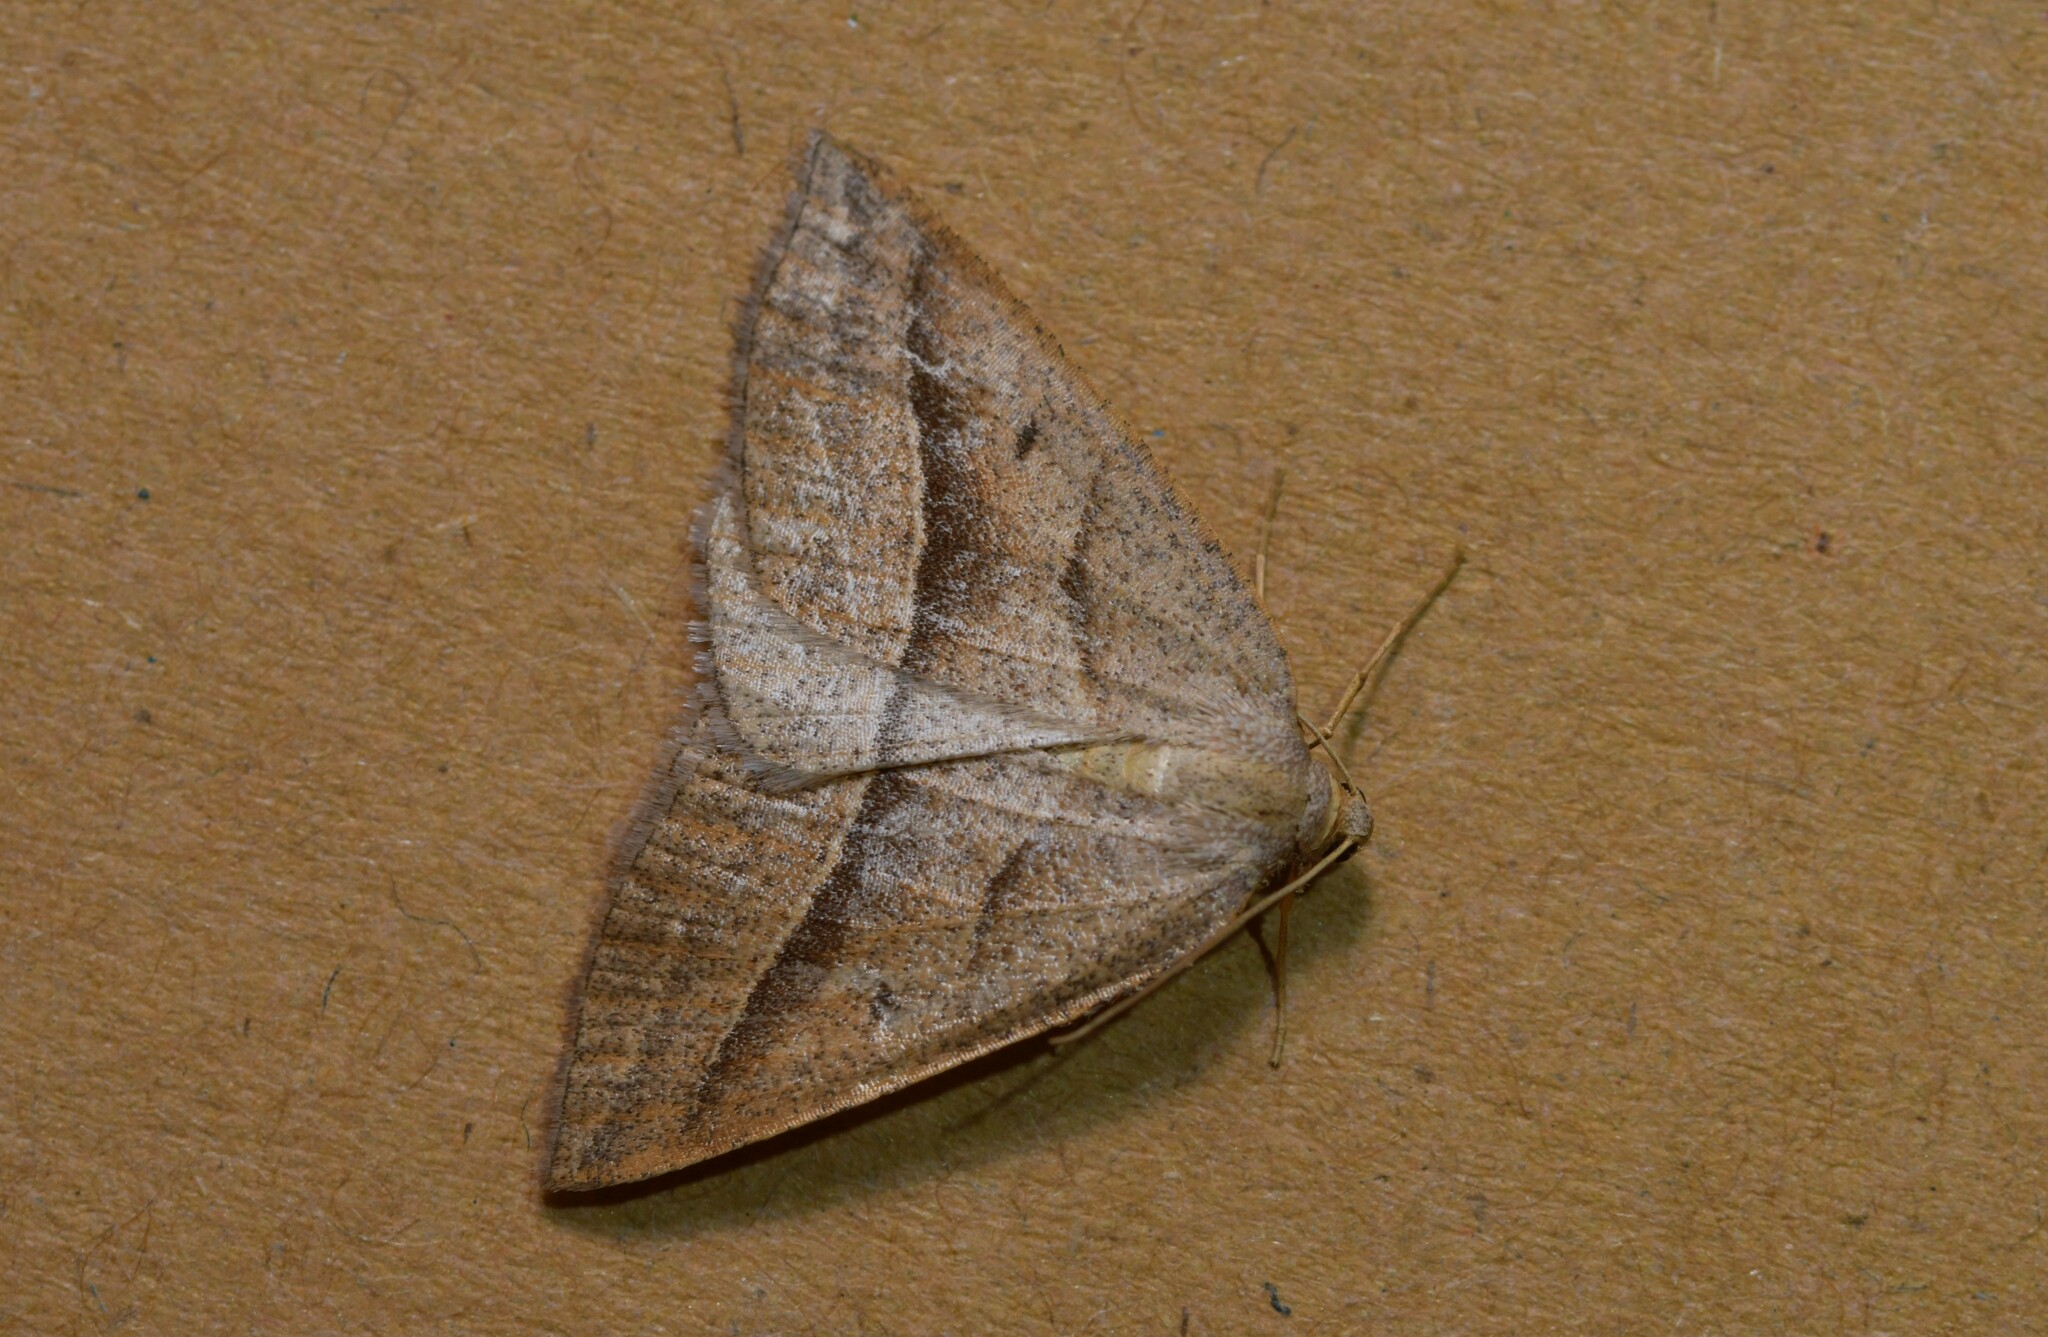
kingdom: Animalia
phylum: Arthropoda
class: Insecta
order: Lepidoptera
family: Pterophoridae
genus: Pterophorus
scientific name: Pterophorus Petrophora chlorosata
